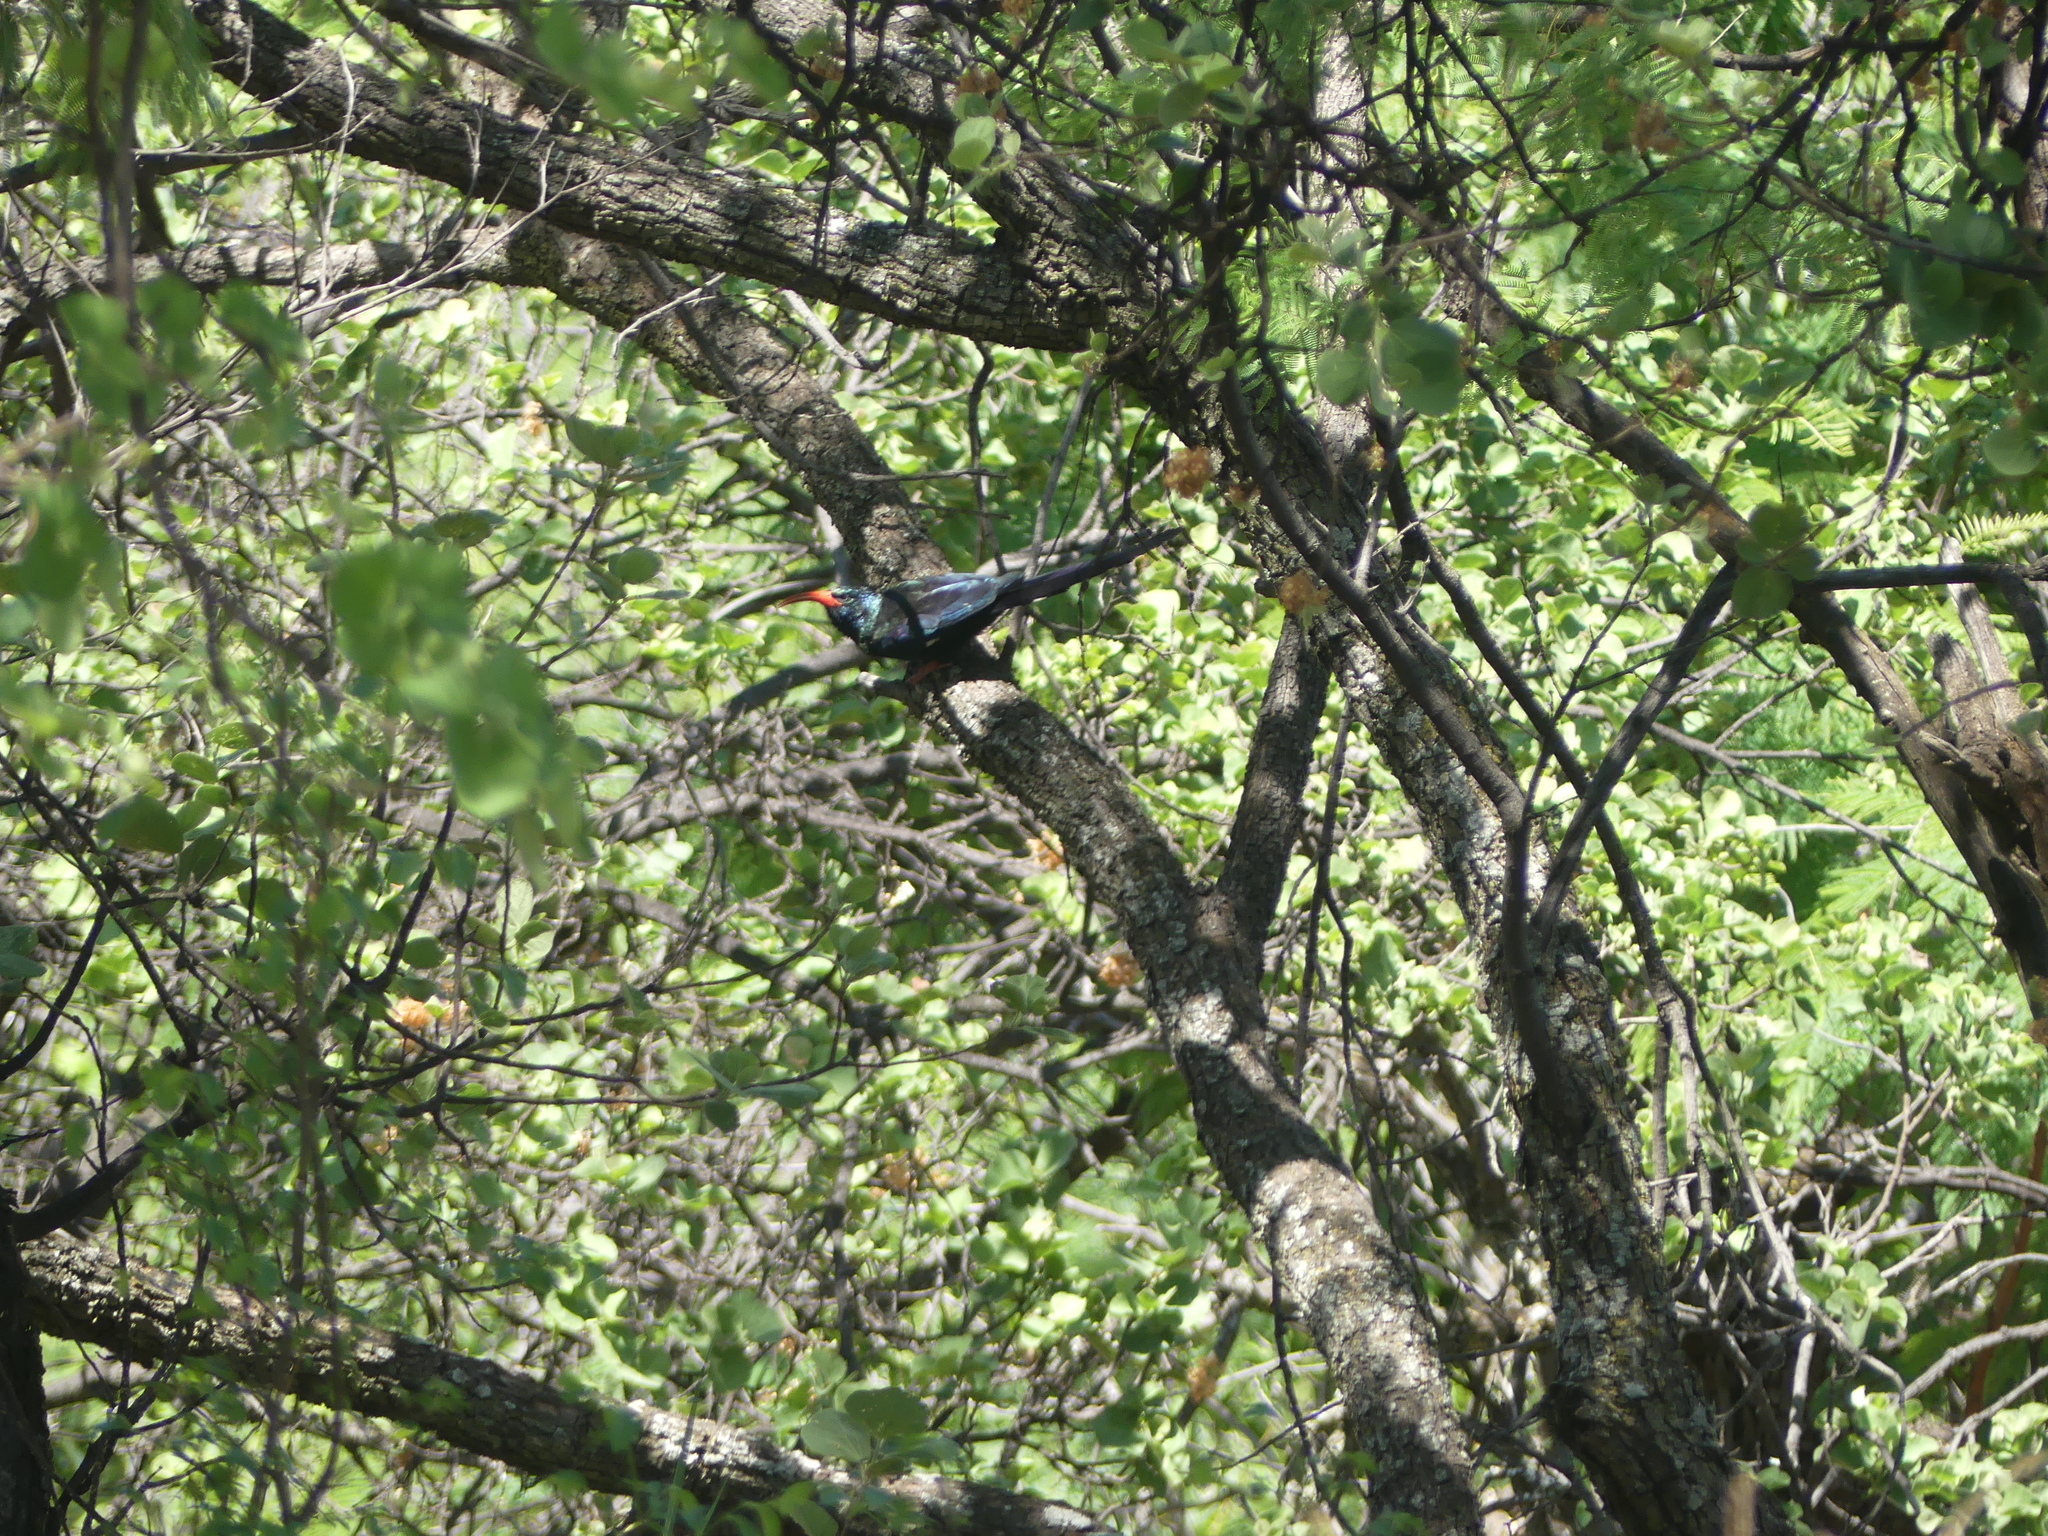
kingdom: Animalia
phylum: Chordata
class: Aves
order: Bucerotiformes
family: Phoeniculidae
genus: Phoeniculus
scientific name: Phoeniculus purpureus
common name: Green woodhoopoe
